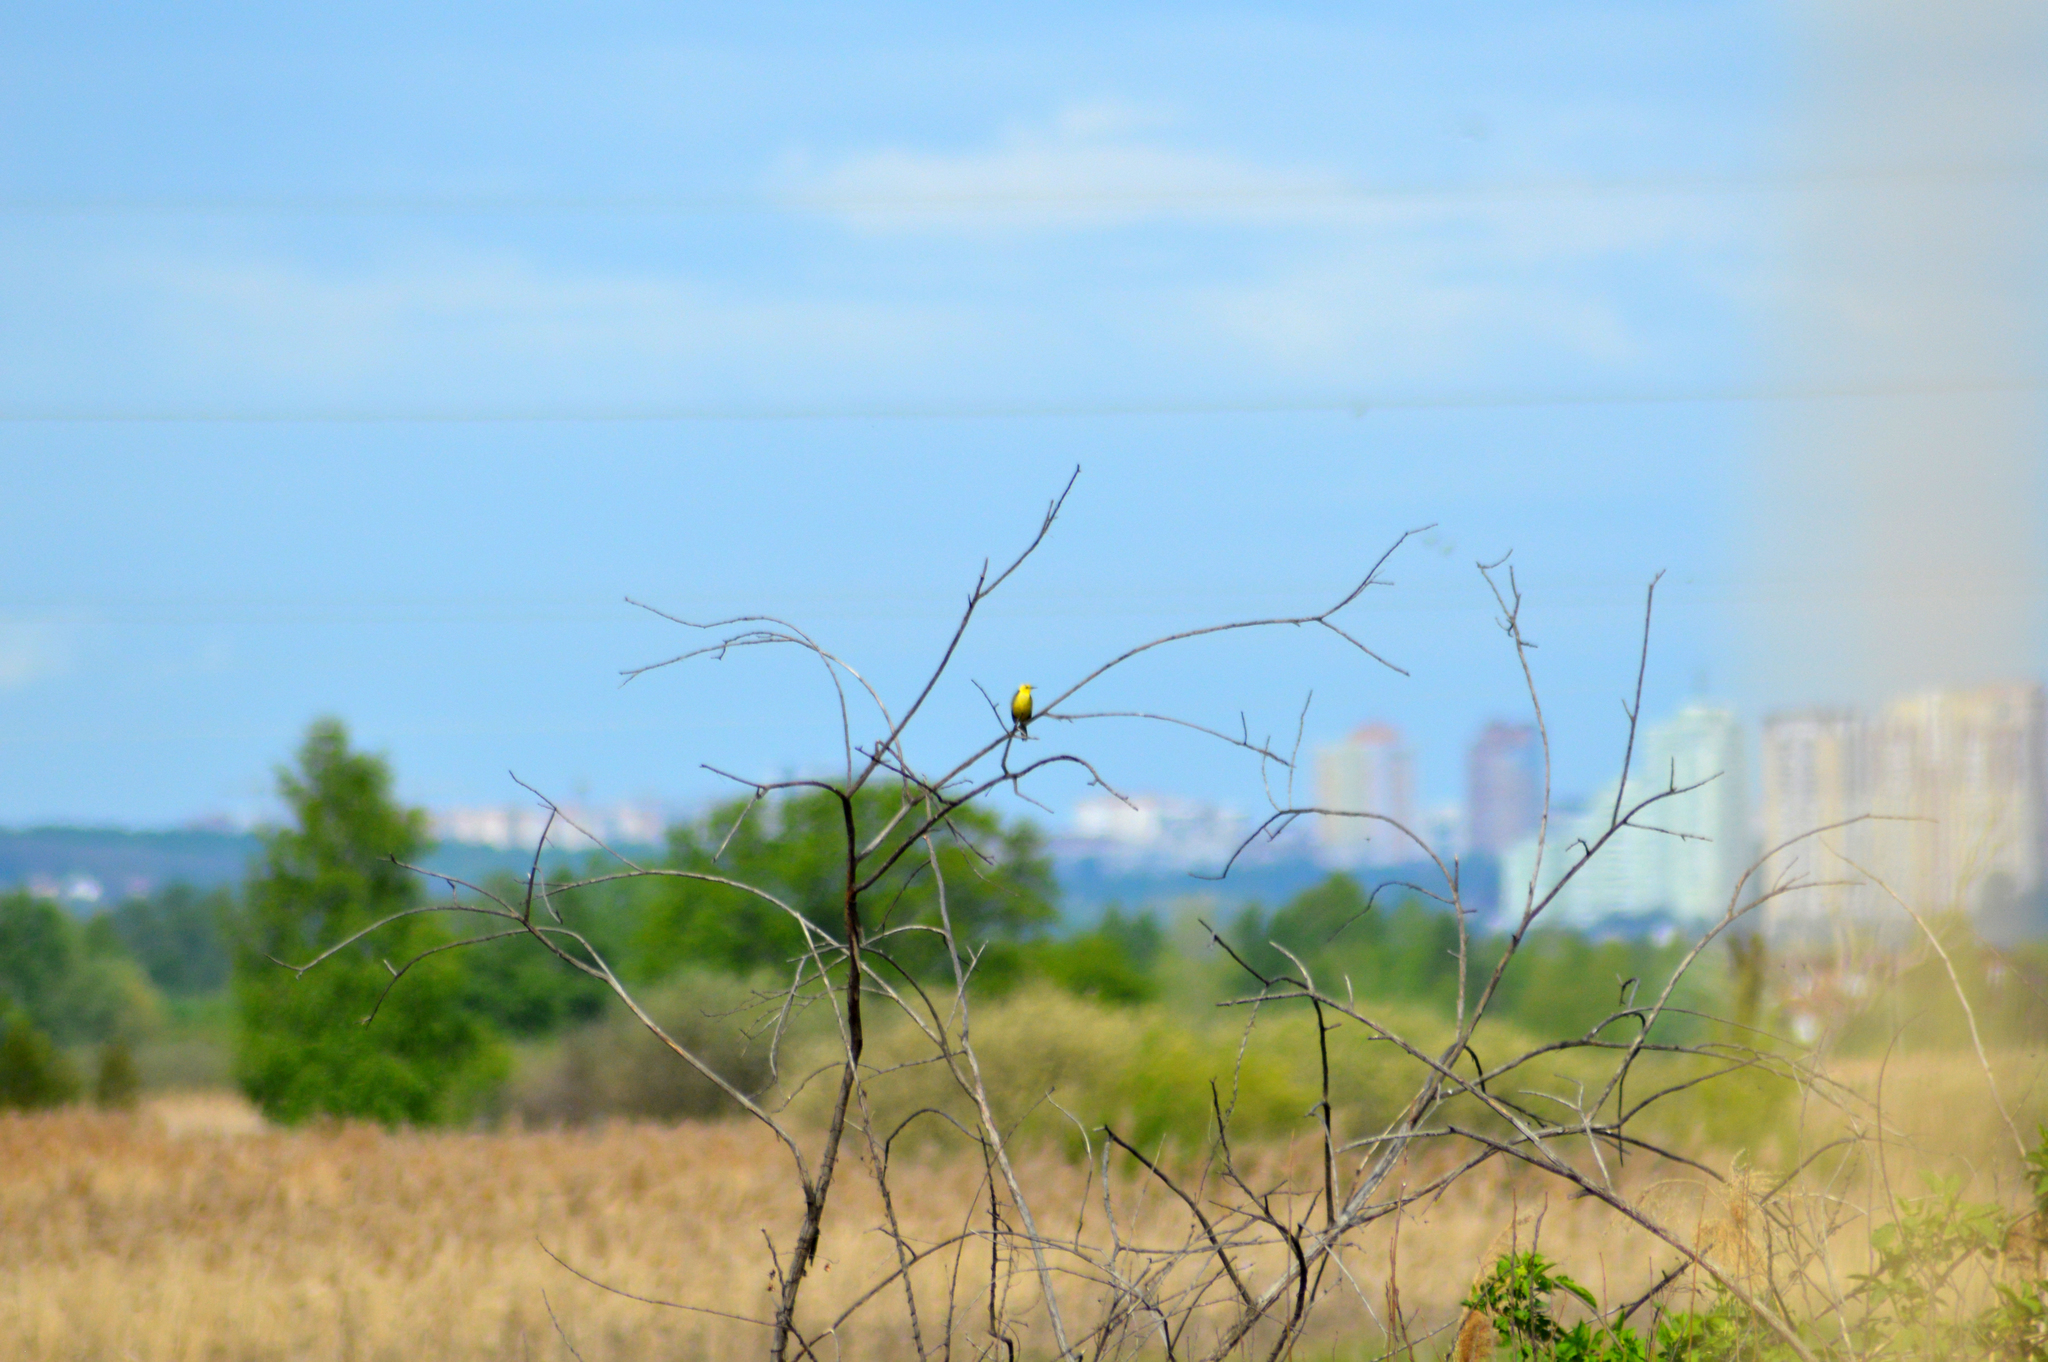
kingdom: Animalia
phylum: Chordata
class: Aves
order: Passeriformes
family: Motacillidae
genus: Motacilla
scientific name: Motacilla citreola
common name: Citrine wagtail
